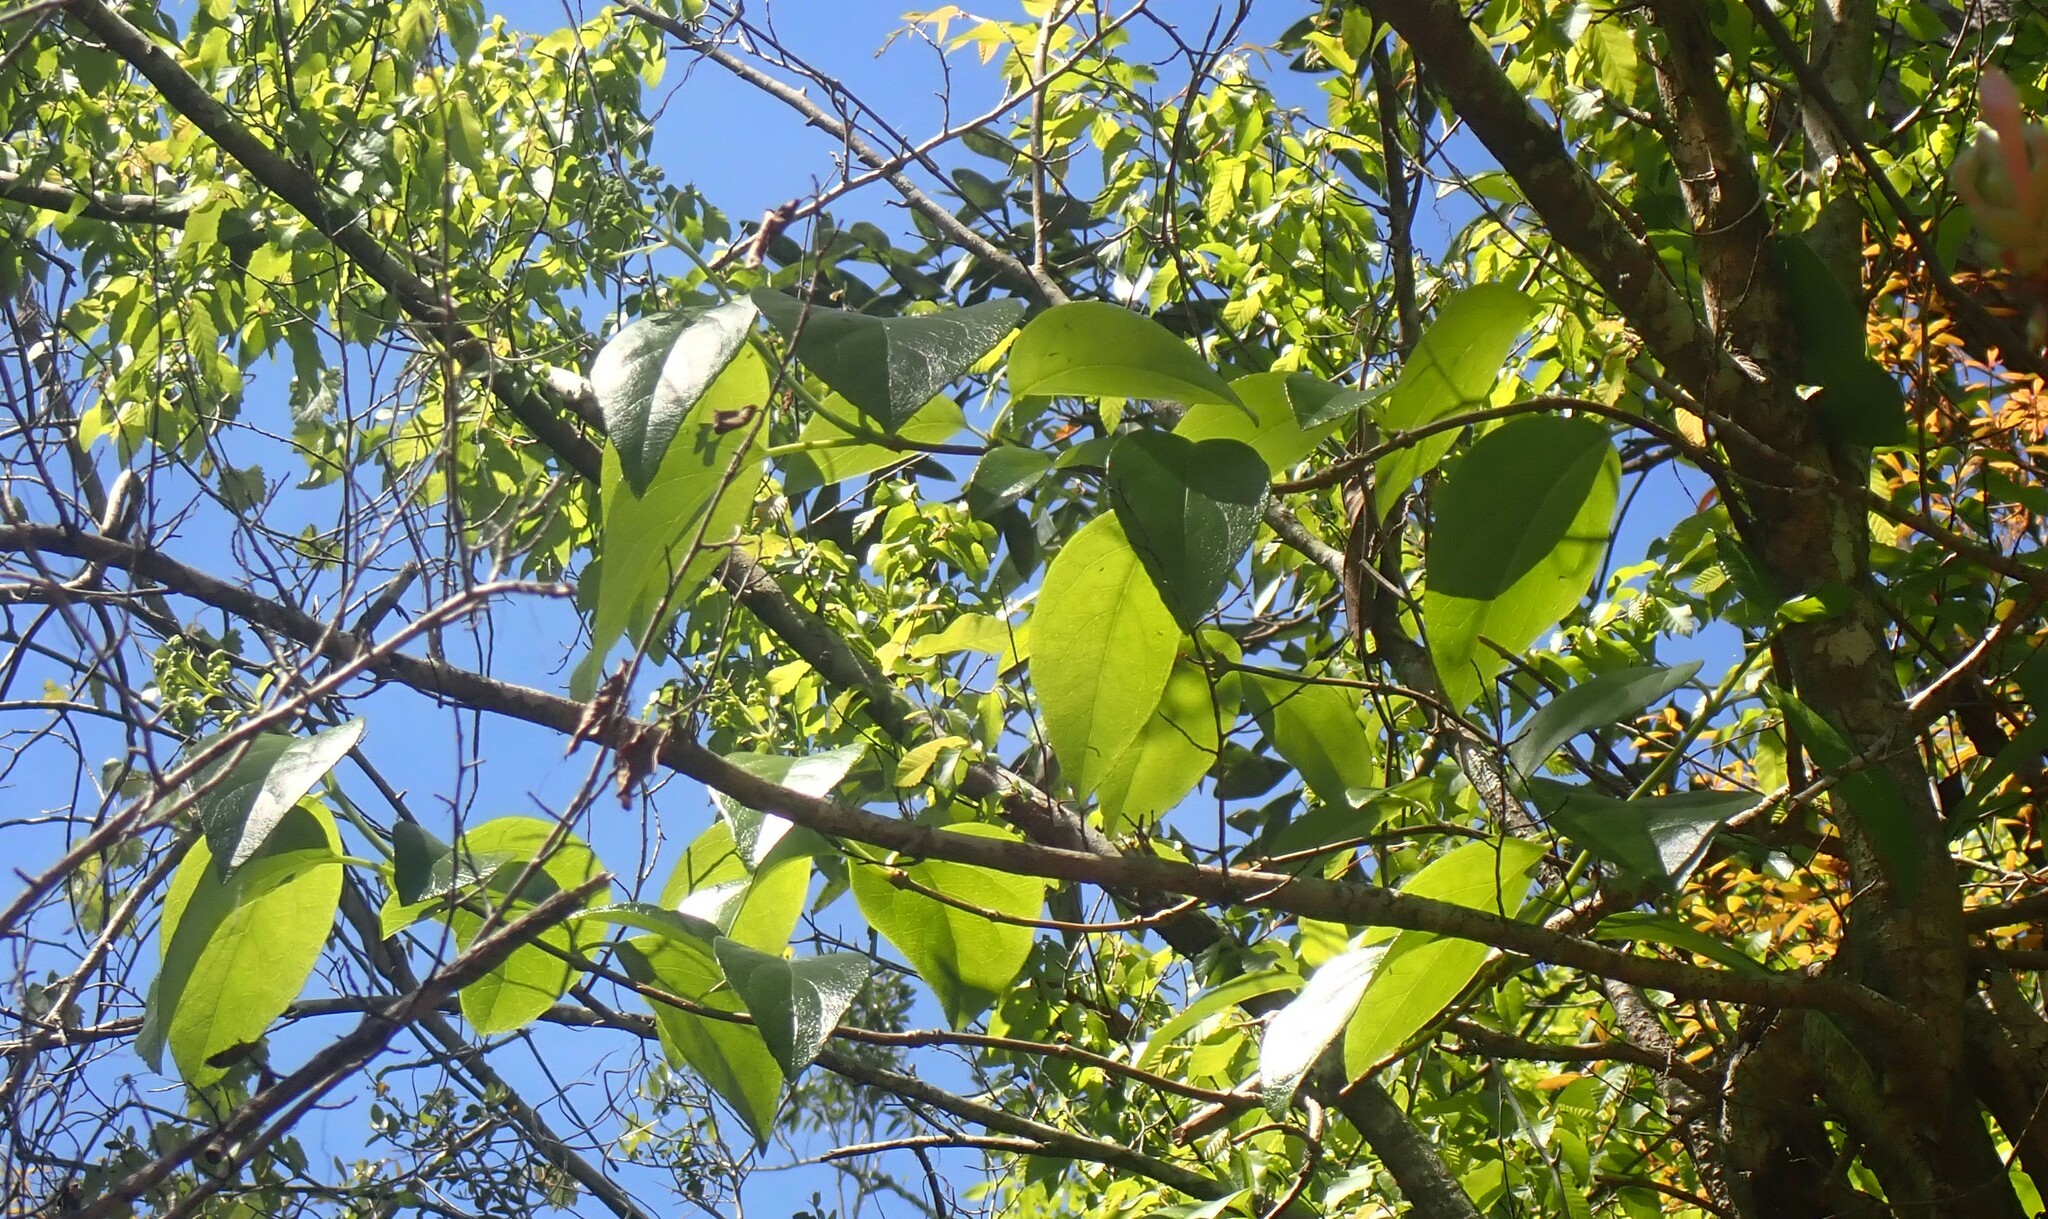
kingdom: Plantae
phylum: Tracheophyta
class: Magnoliopsida
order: Cornales
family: Hydrangeaceae
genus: Hydrangea
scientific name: Hydrangea barbara
